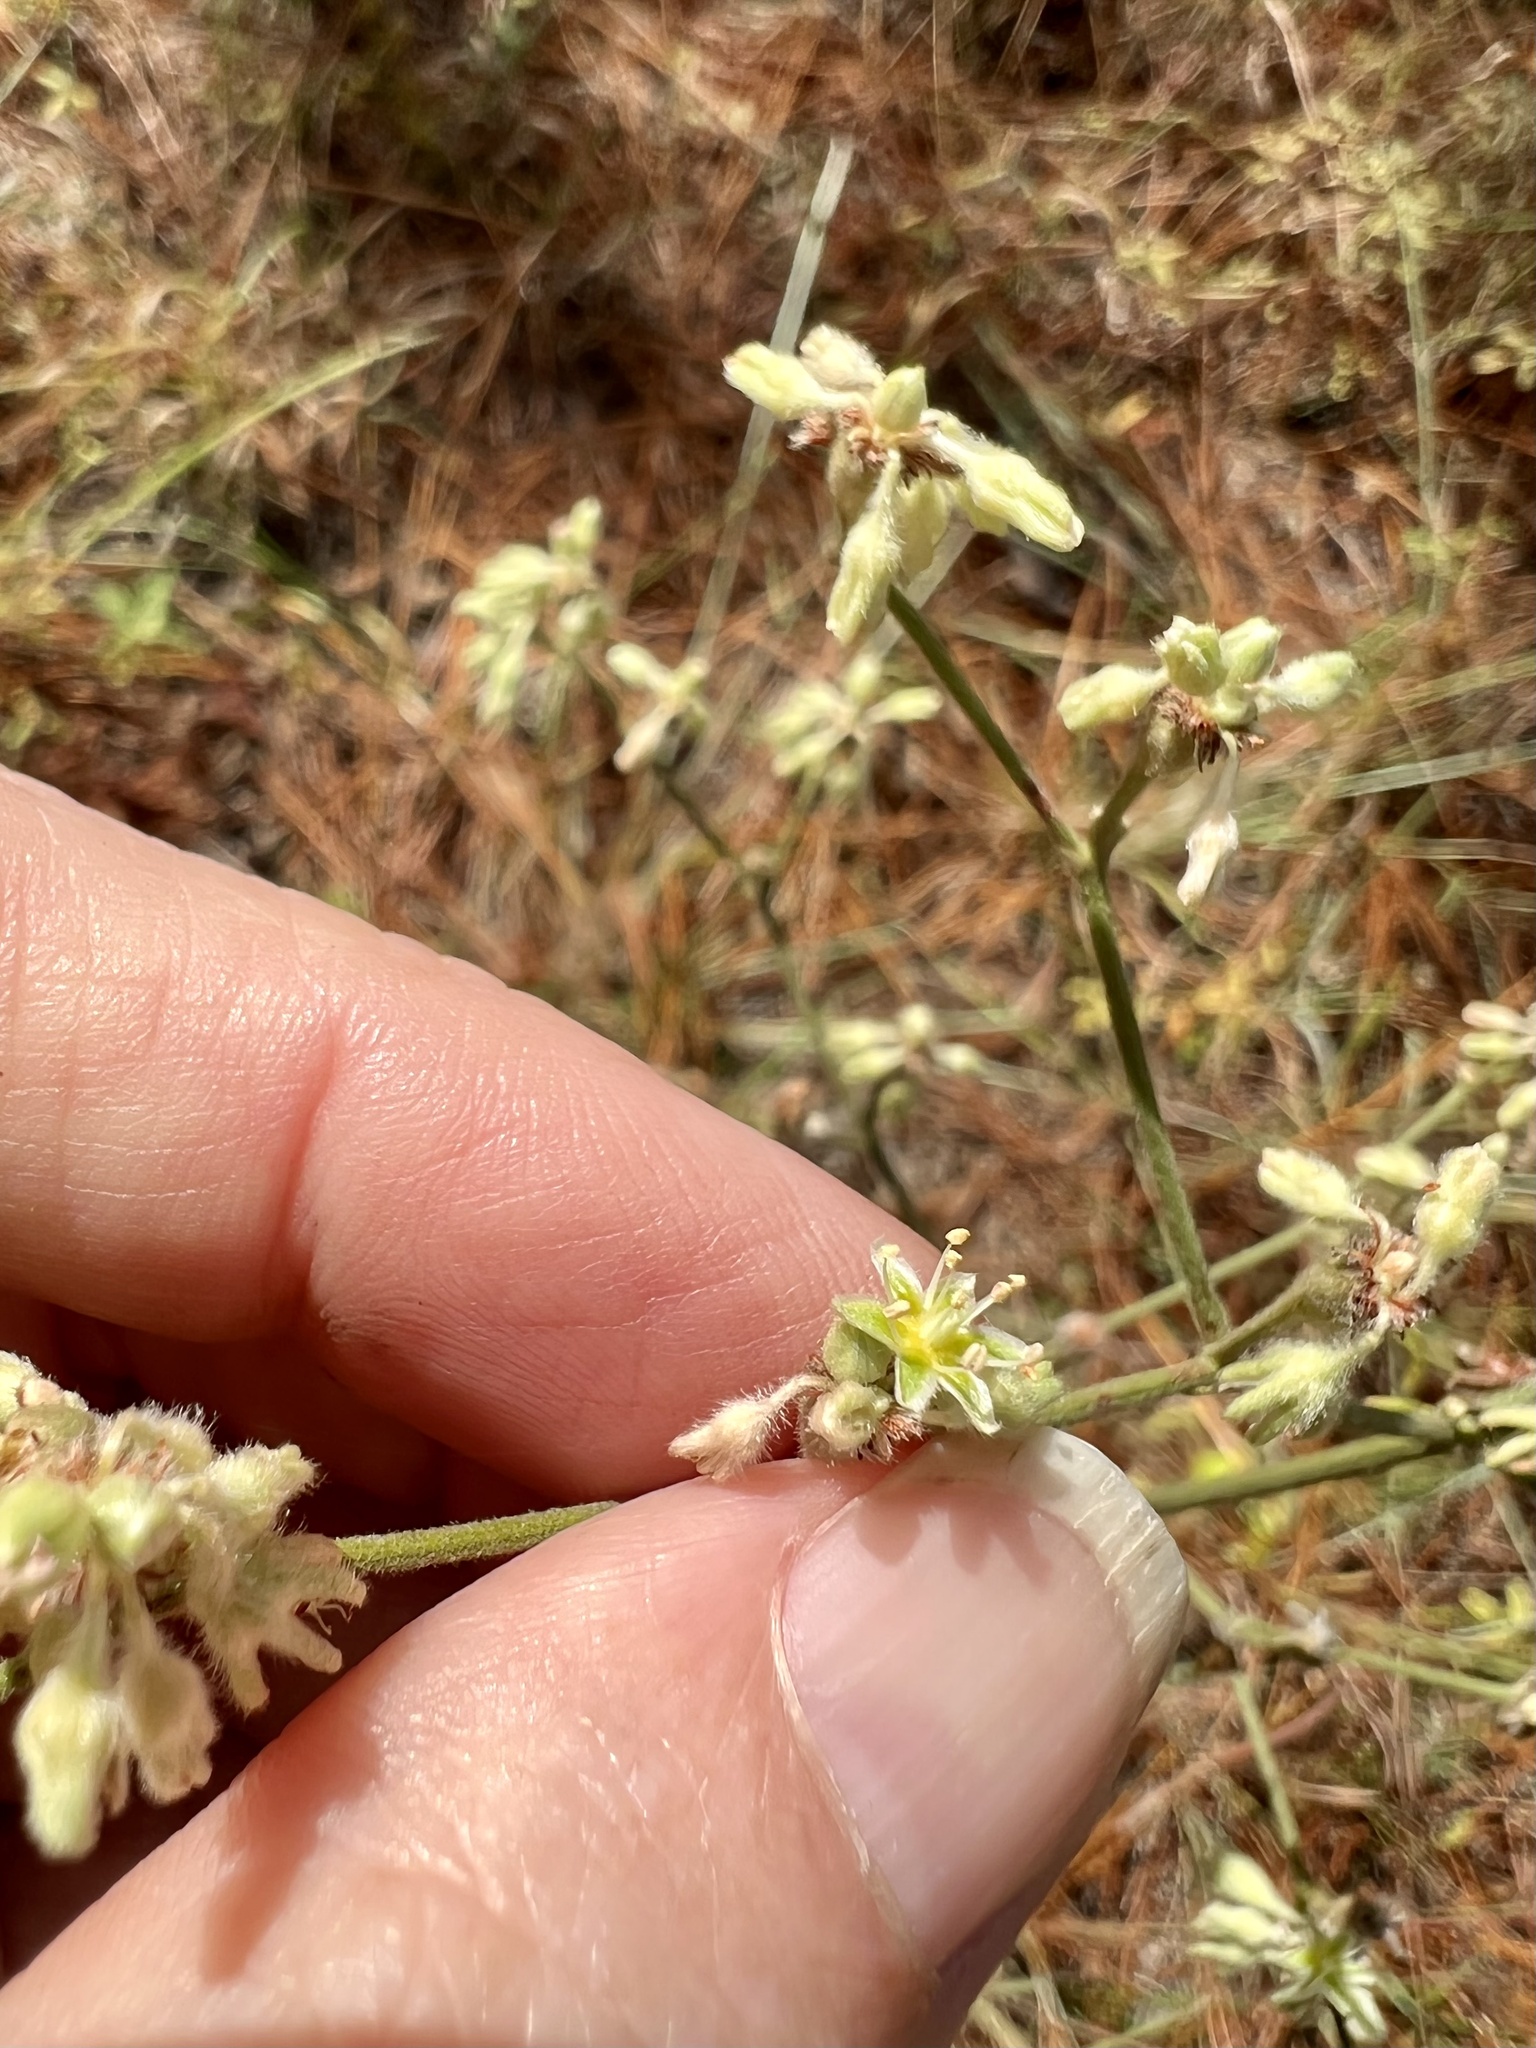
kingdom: Plantae
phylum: Tracheophyta
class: Magnoliopsida
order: Caryophyllales
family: Polygonaceae
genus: Eriogonum
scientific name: Eriogonum longifolium
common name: Longleaf wild buckwheat
